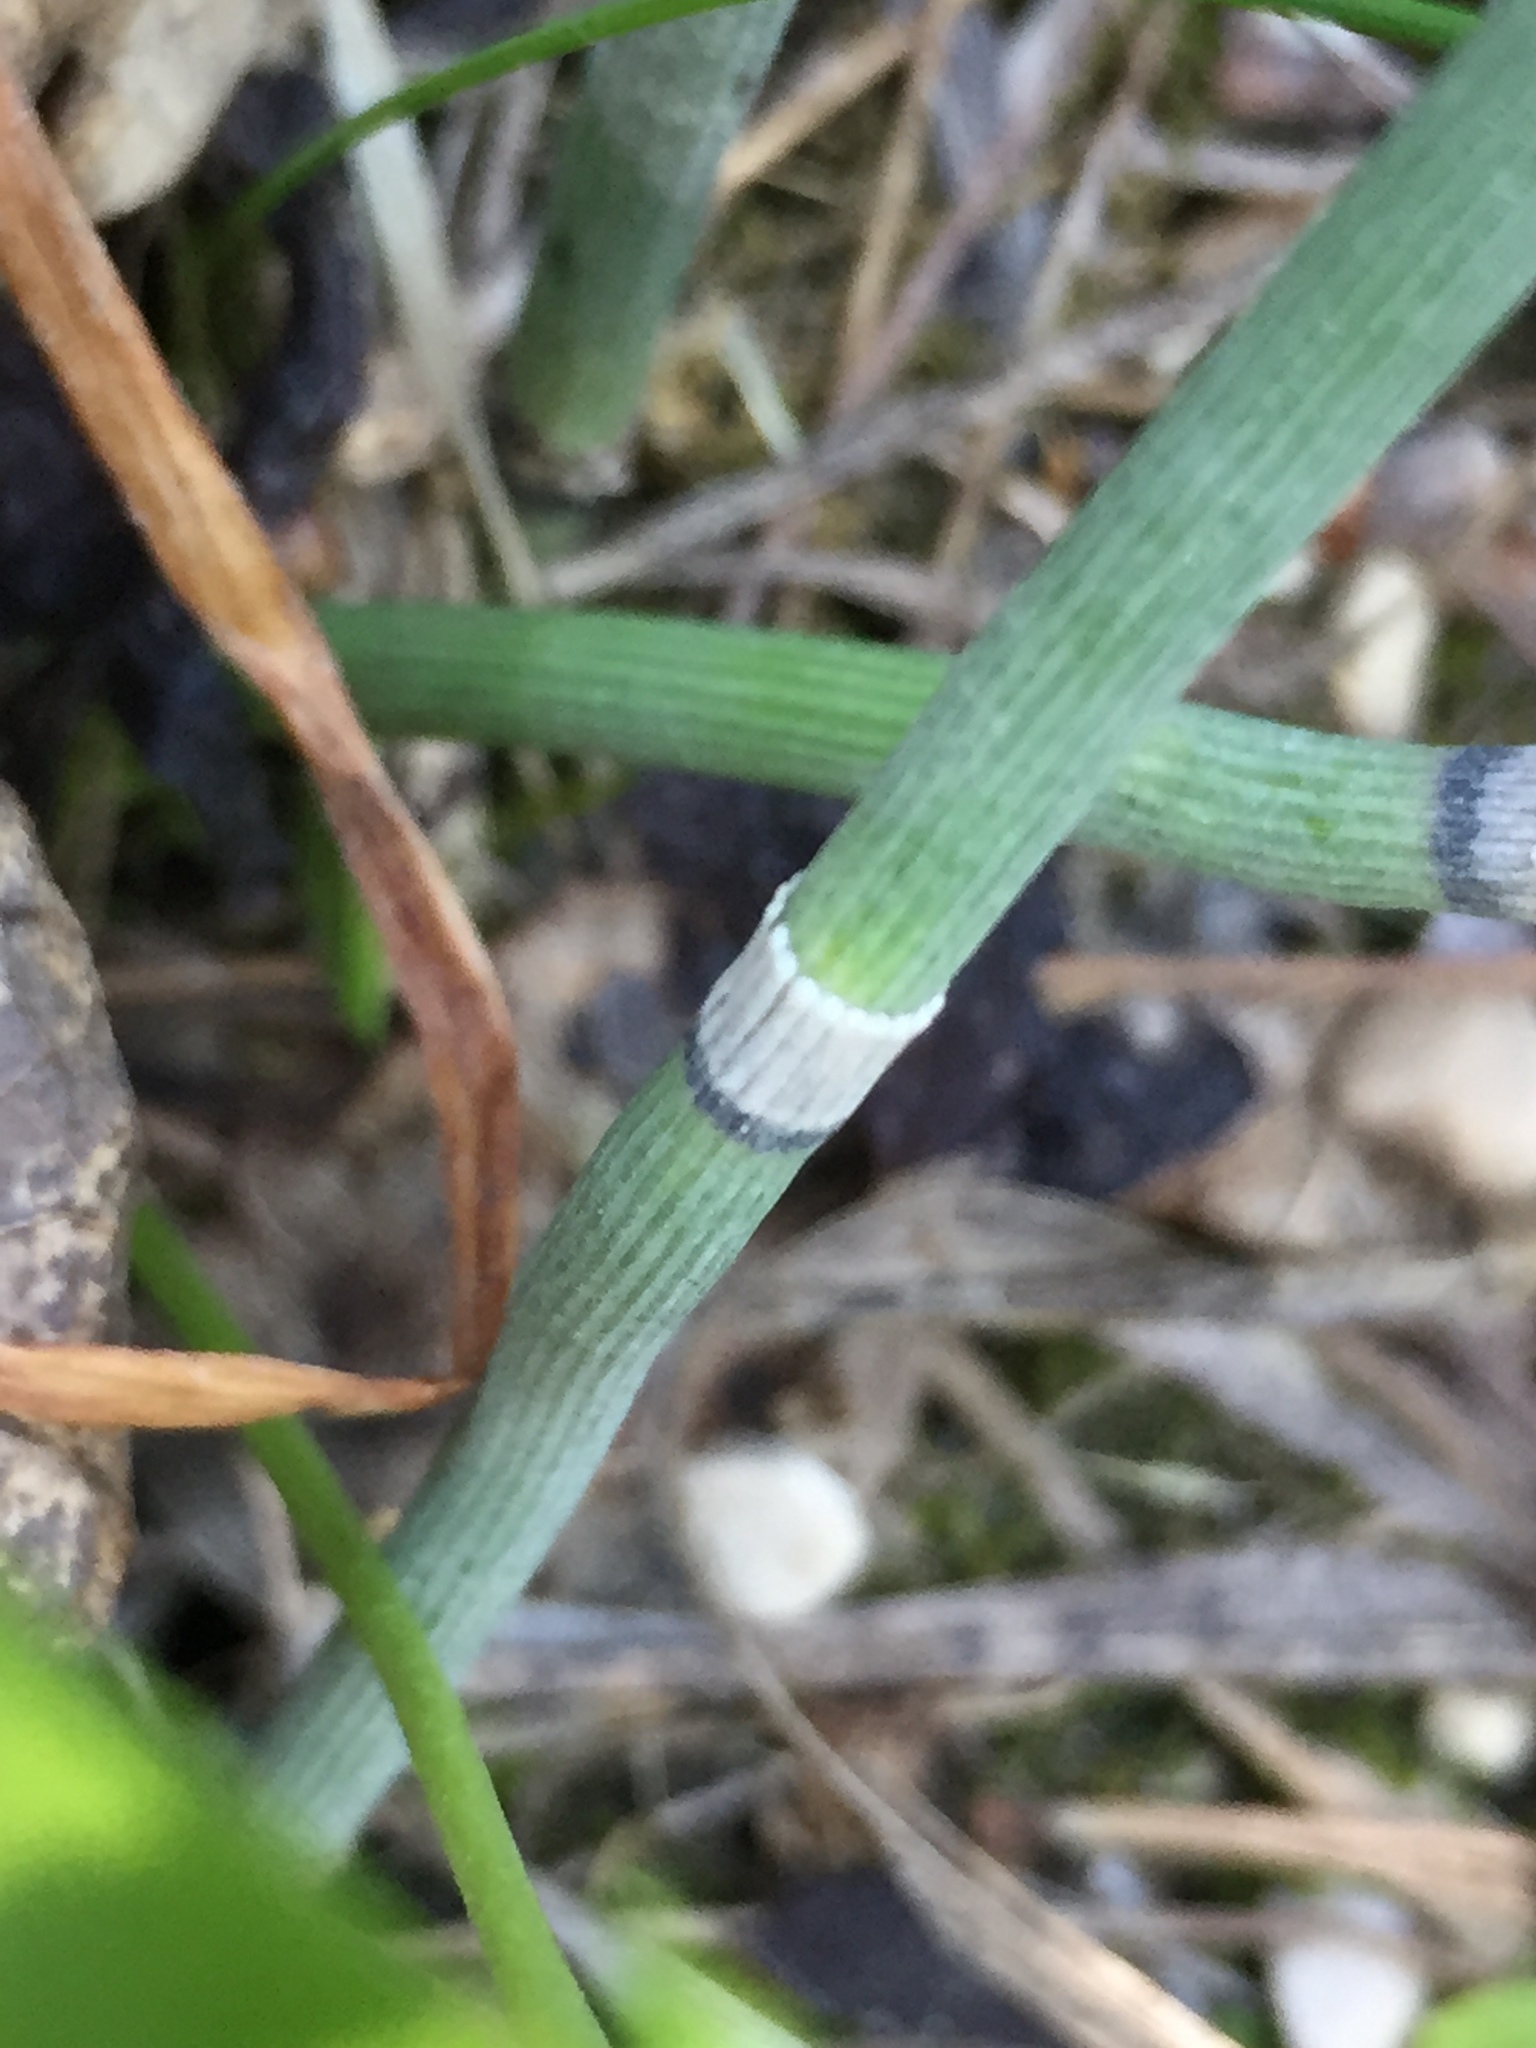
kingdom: Plantae
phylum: Tracheophyta
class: Polypodiopsida
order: Equisetales
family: Equisetaceae
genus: Equisetum
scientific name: Equisetum praealtum
